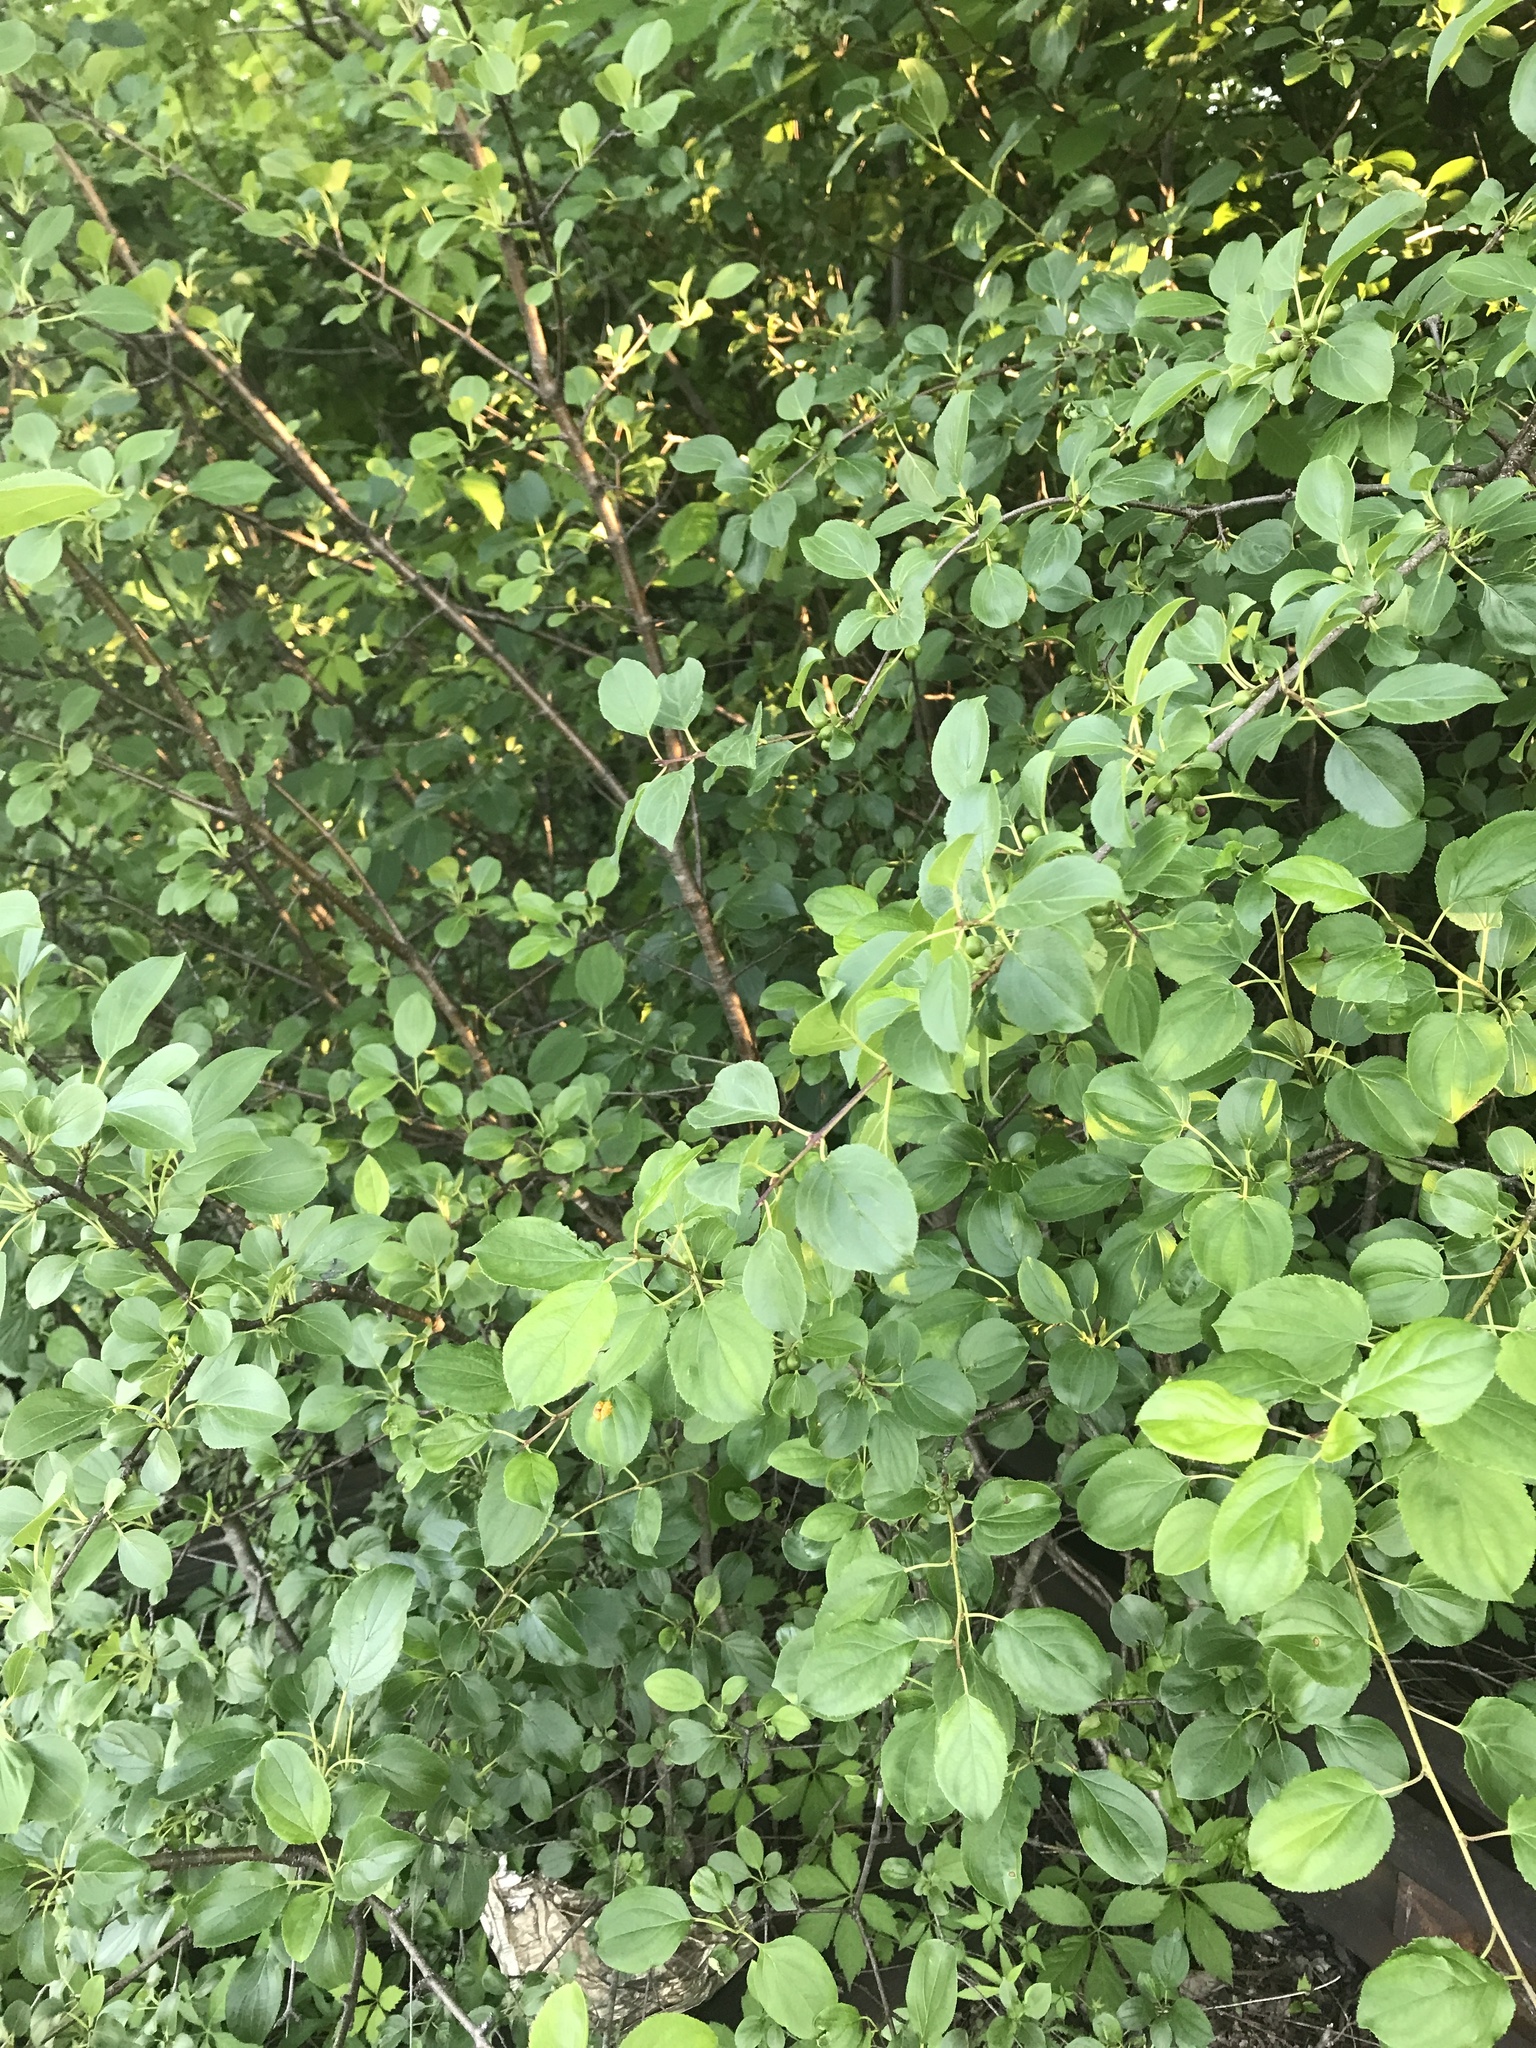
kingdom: Plantae
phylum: Tracheophyta
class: Magnoliopsida
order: Rosales
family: Rhamnaceae
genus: Rhamnus
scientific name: Rhamnus cathartica
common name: Common buckthorn
